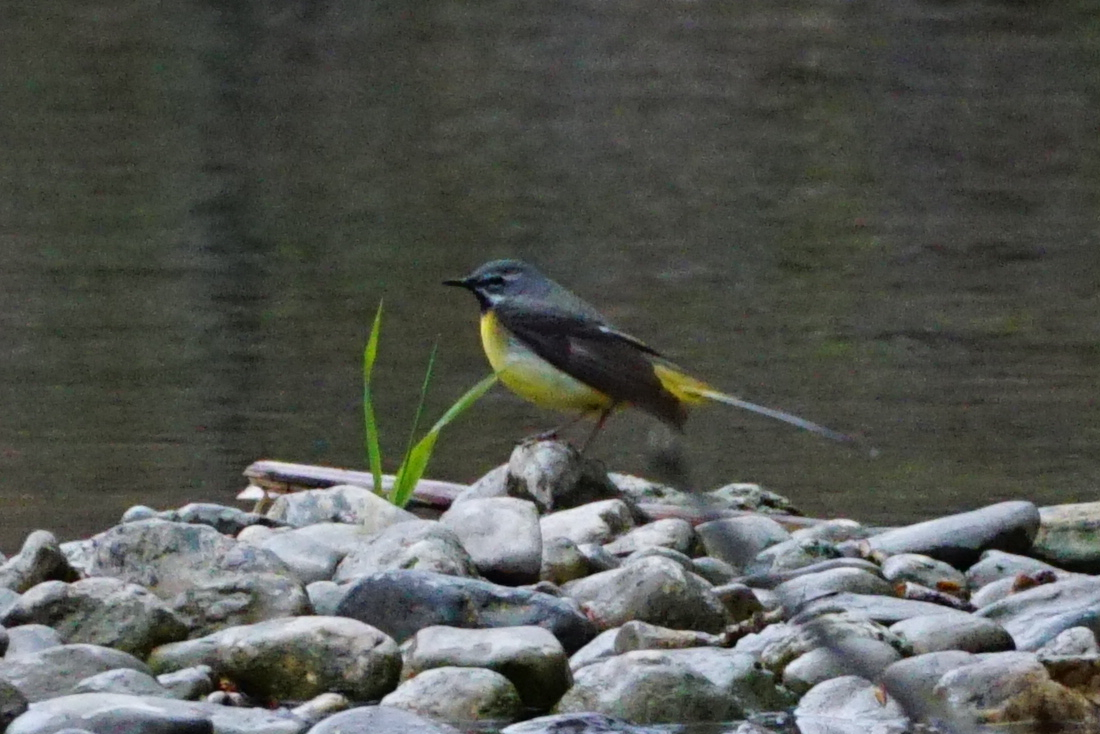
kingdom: Animalia
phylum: Chordata
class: Aves
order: Passeriformes
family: Motacillidae
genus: Motacilla
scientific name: Motacilla cinerea
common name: Grey wagtail
